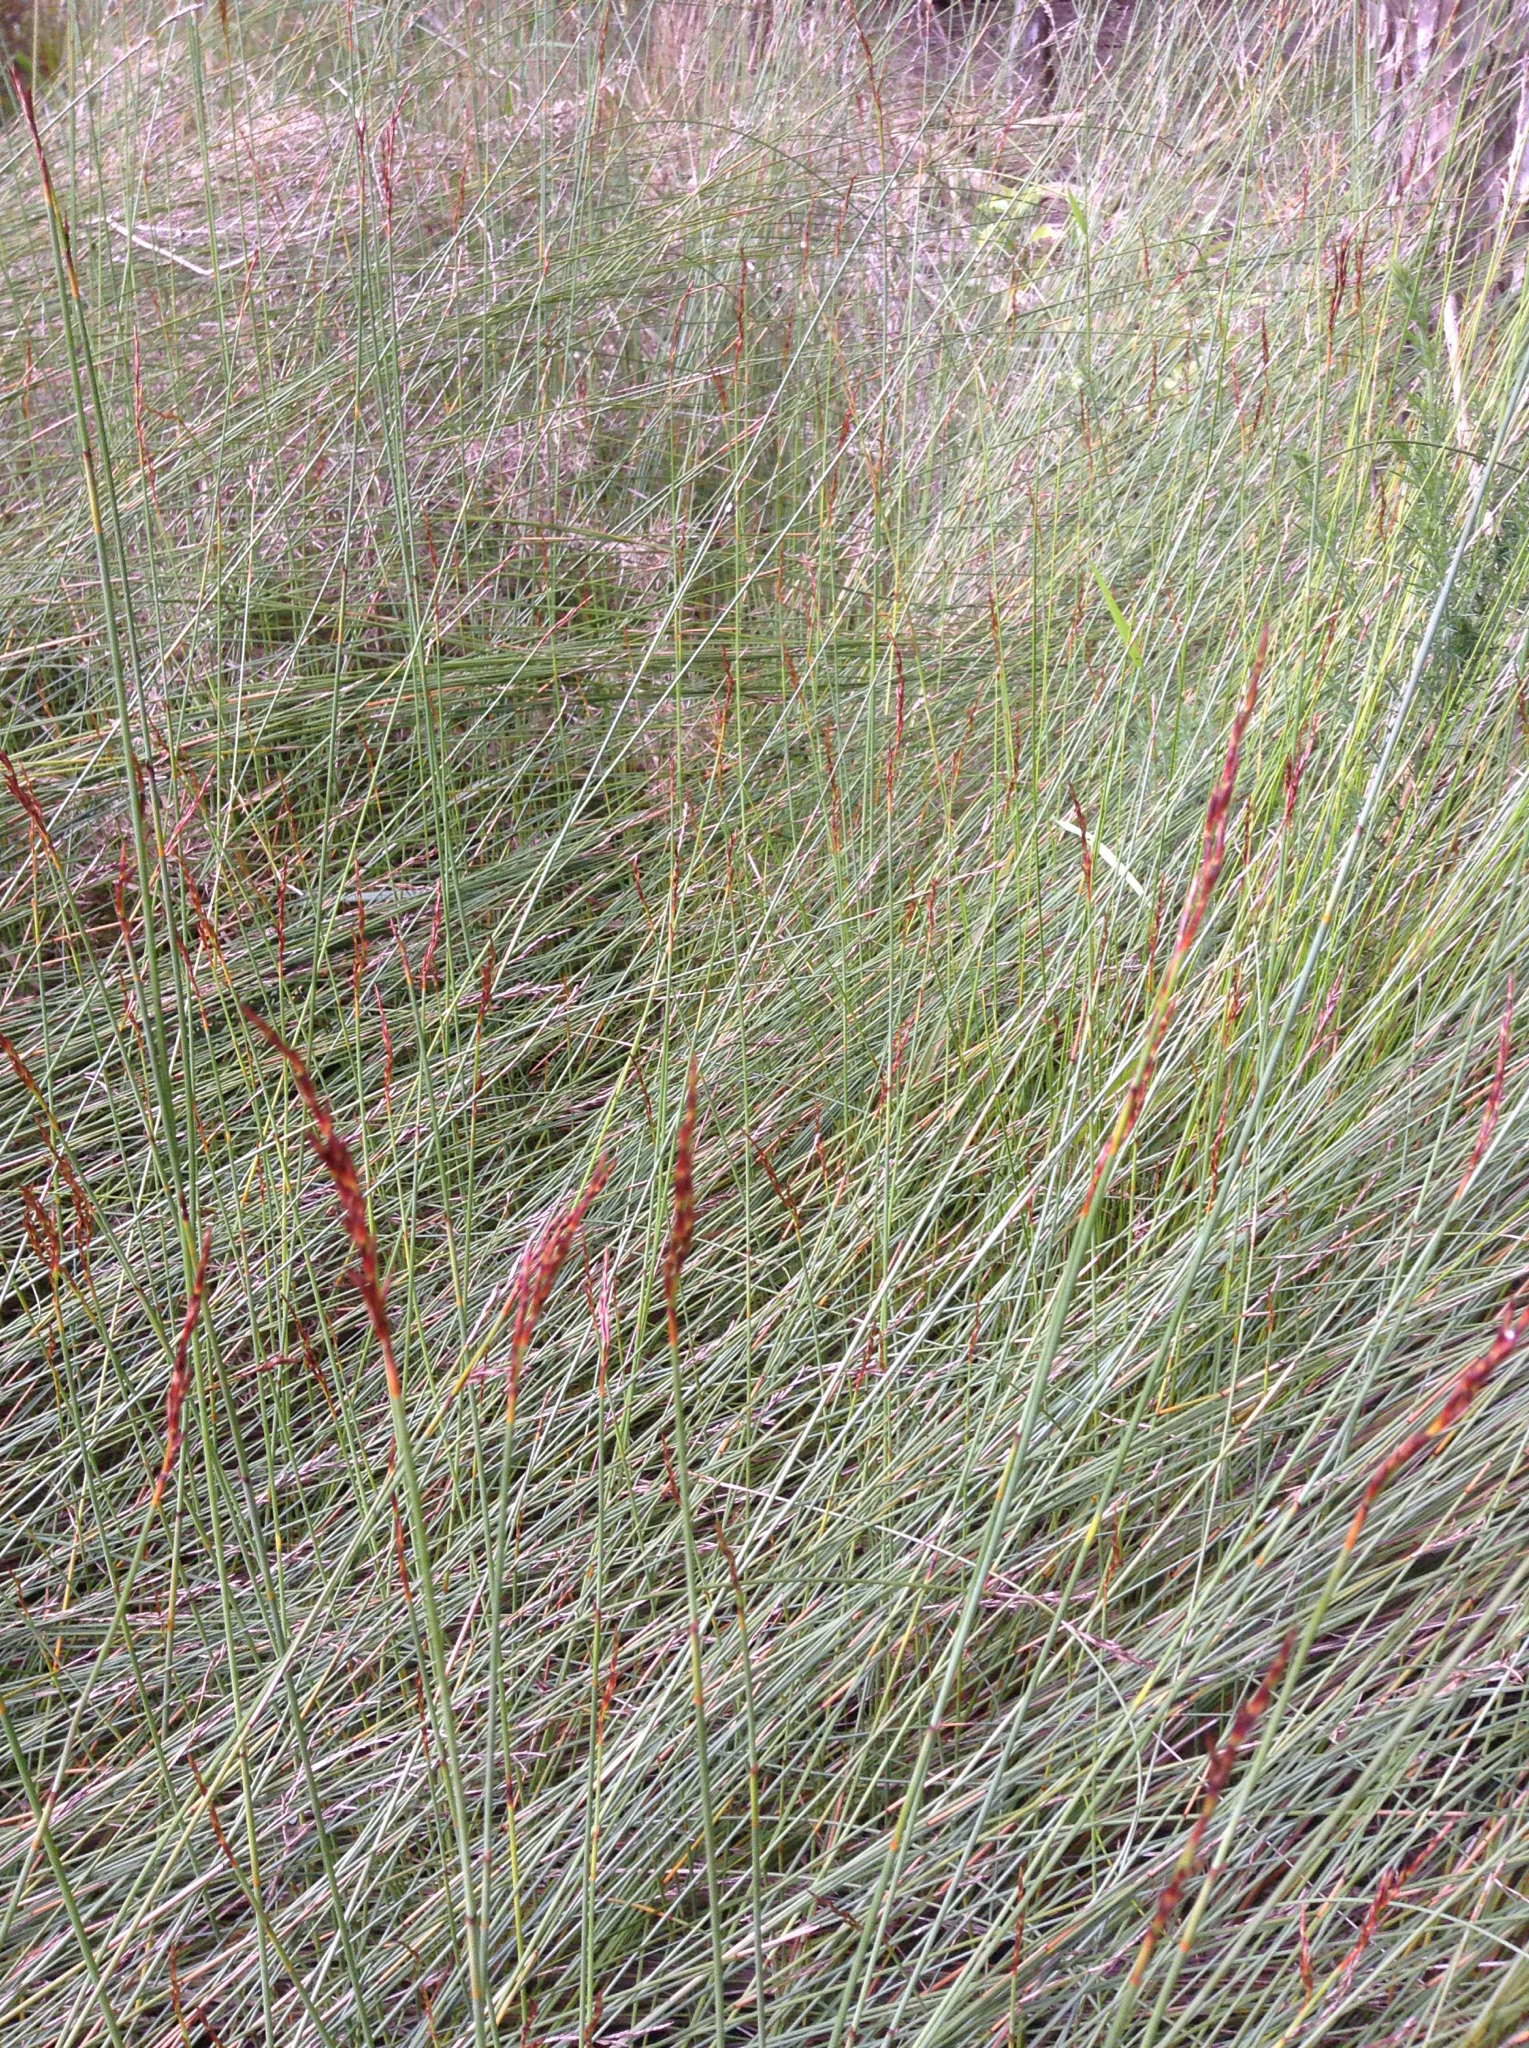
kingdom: Plantae
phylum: Tracheophyta
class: Liliopsida
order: Poales
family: Cyperaceae
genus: Machaerina
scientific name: Machaerina juncea
